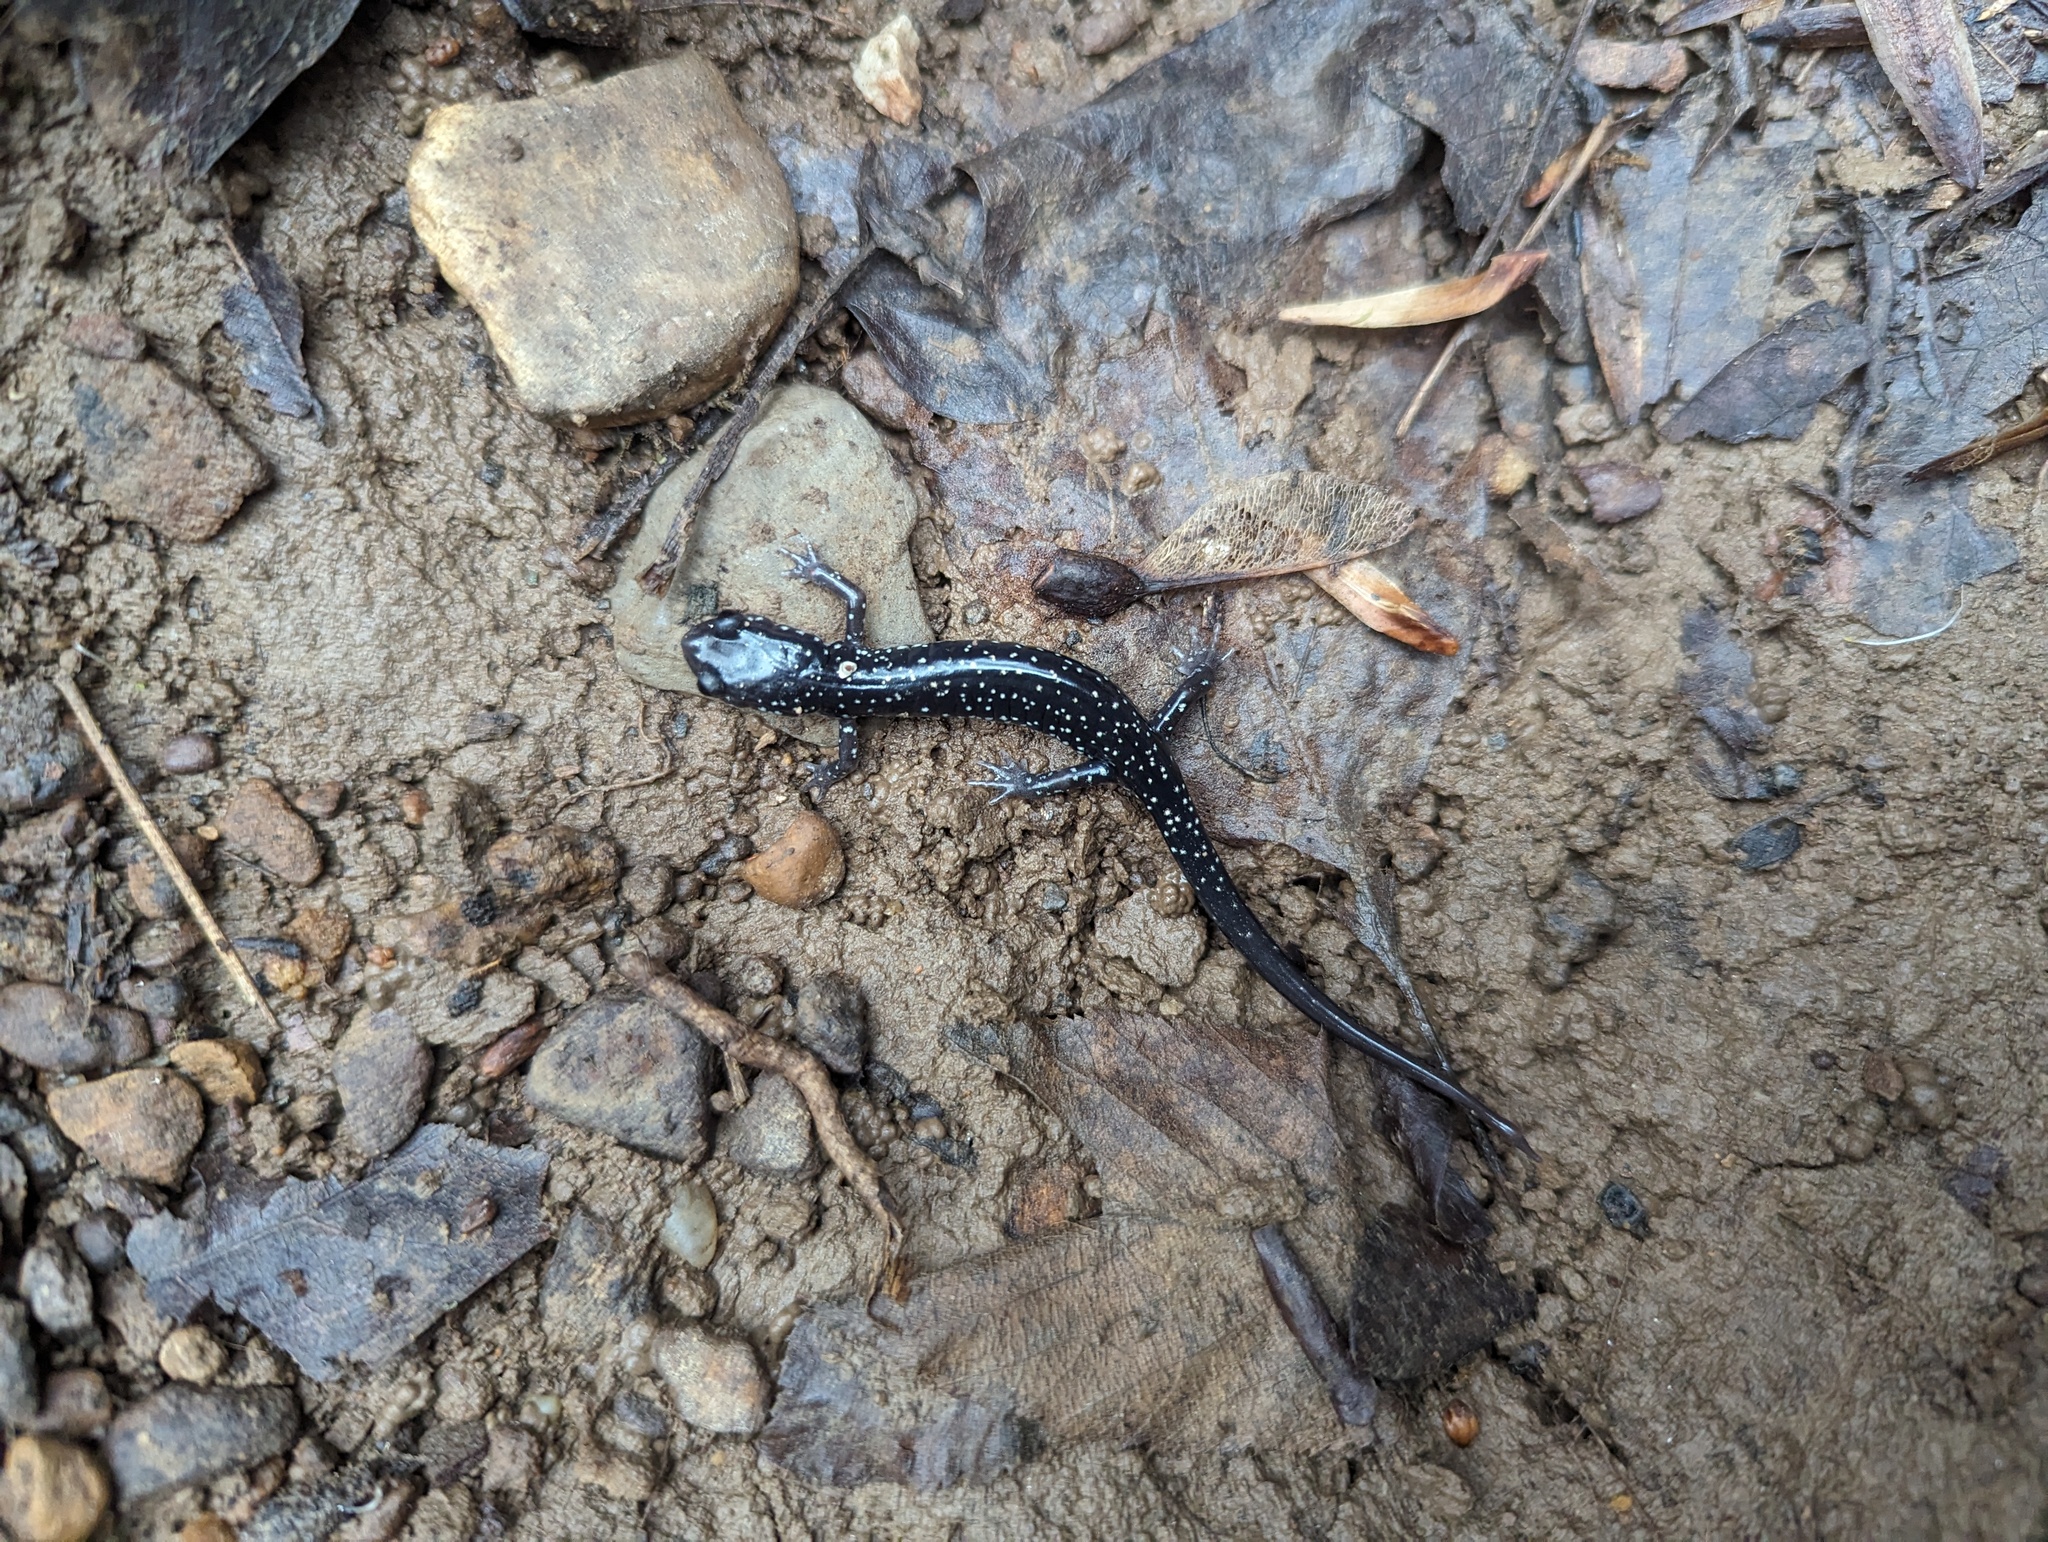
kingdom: Animalia
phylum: Chordata
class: Amphibia
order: Caudata
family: Plethodontidae
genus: Plethodon
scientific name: Plethodon glutinosus
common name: Northern slimy salamander
